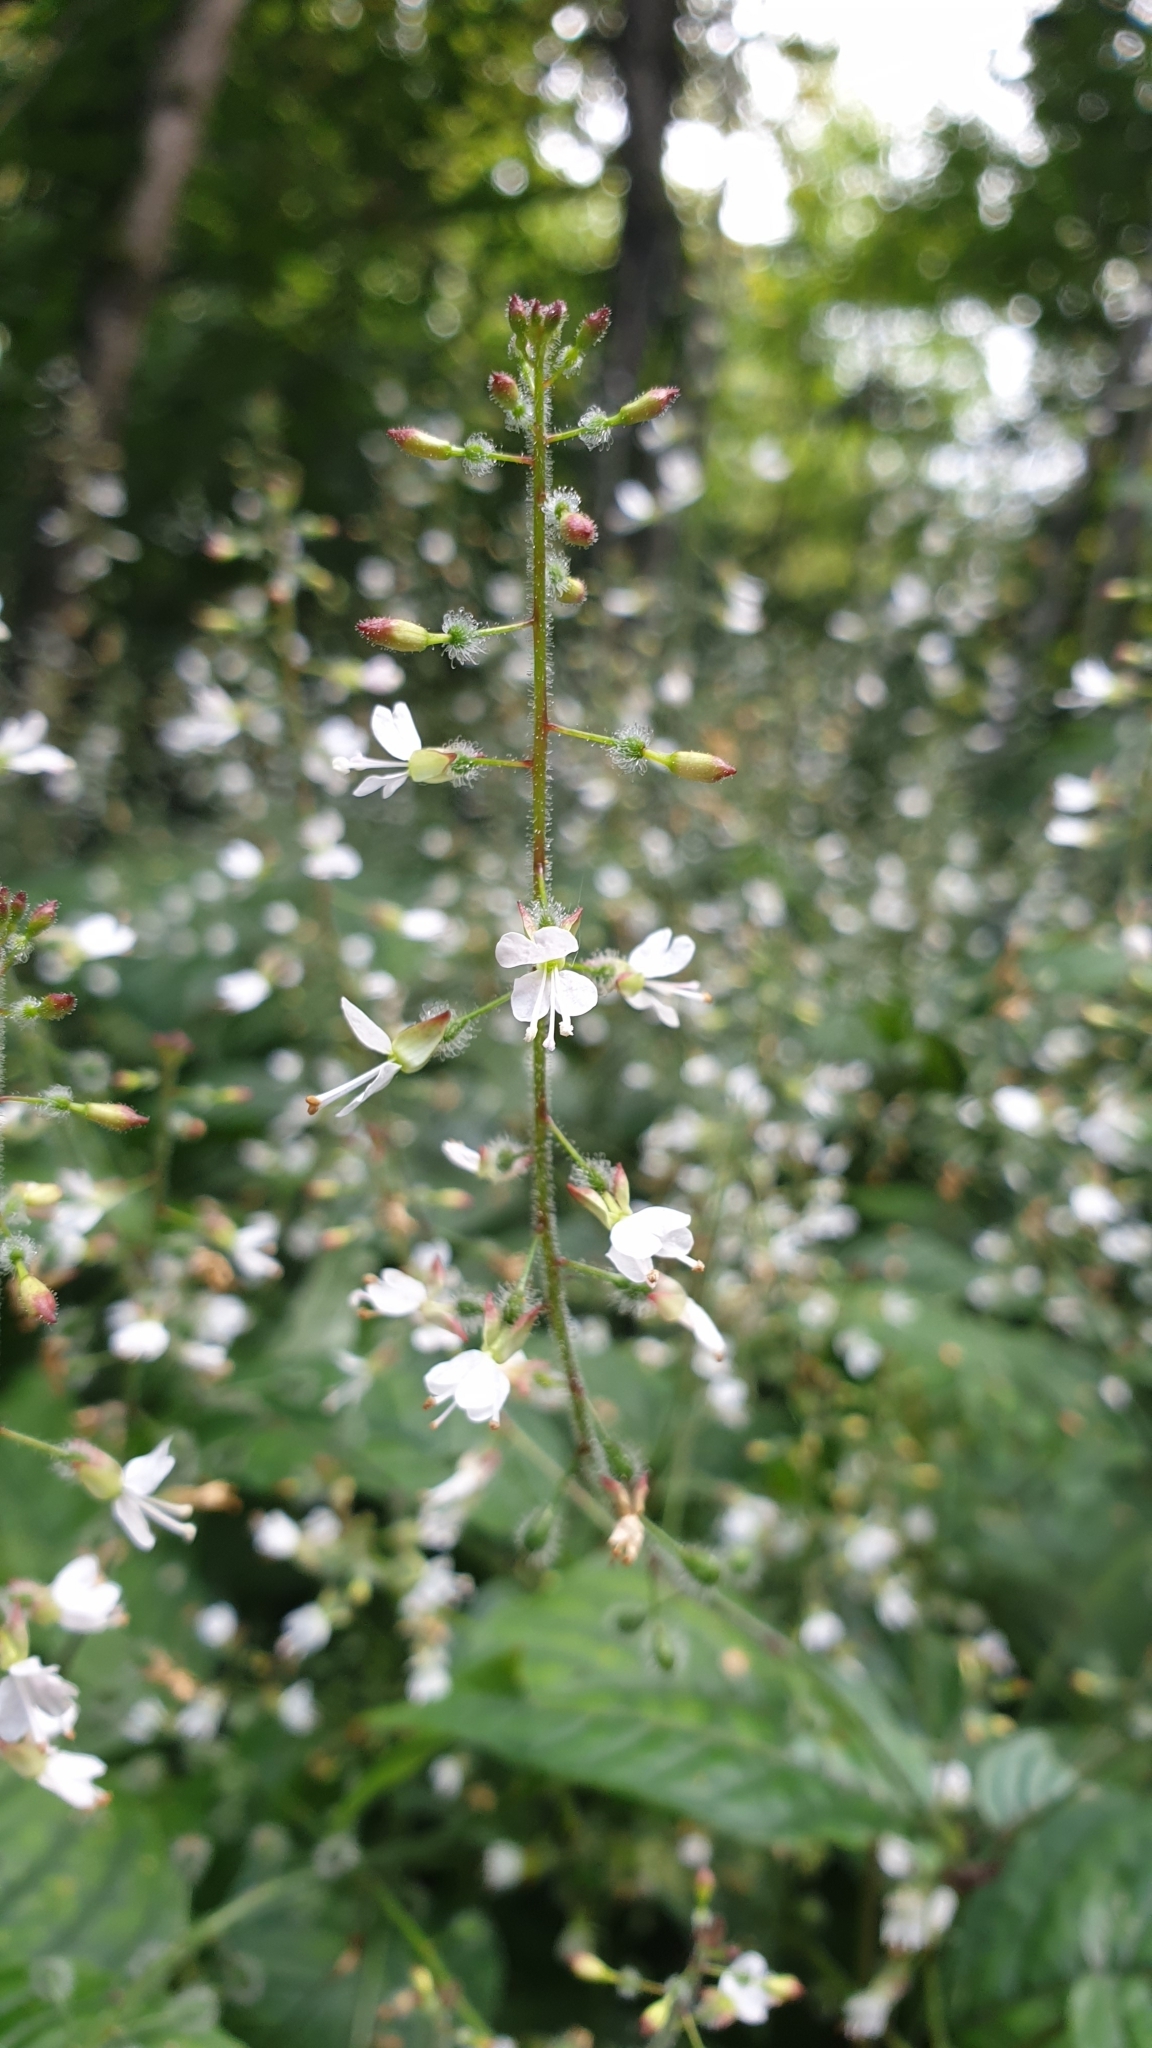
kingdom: Plantae
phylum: Tracheophyta
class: Magnoliopsida
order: Myrtales
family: Onagraceae
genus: Circaea
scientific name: Circaea lutetiana
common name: Enchanter's-nightshade
